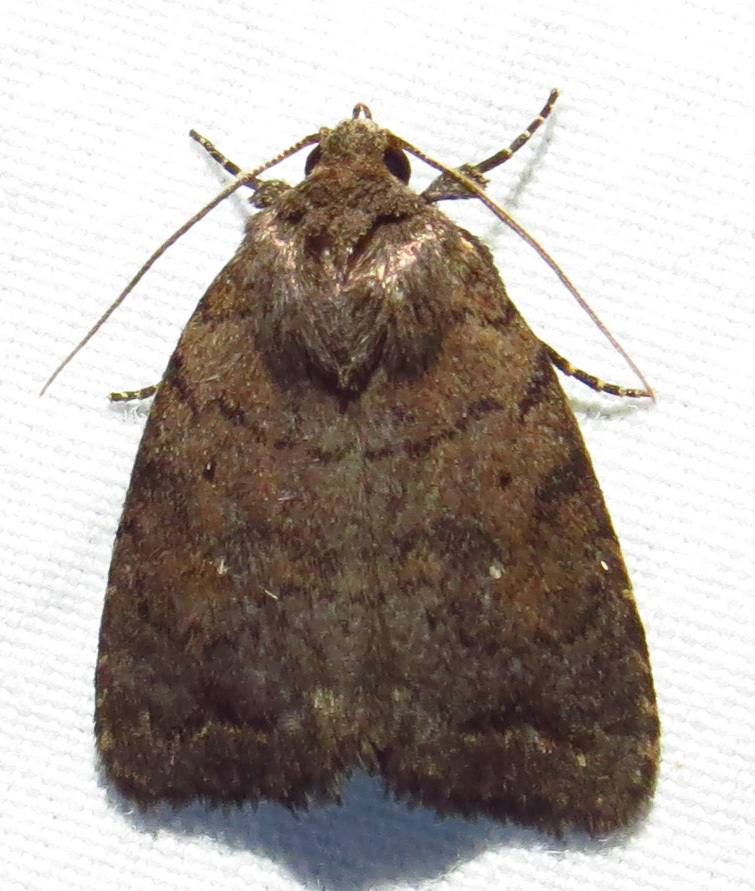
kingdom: Animalia
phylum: Arthropoda
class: Insecta
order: Lepidoptera
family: Noctuidae
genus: Athetis
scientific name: Athetis tarda
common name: Slowpoke moth
